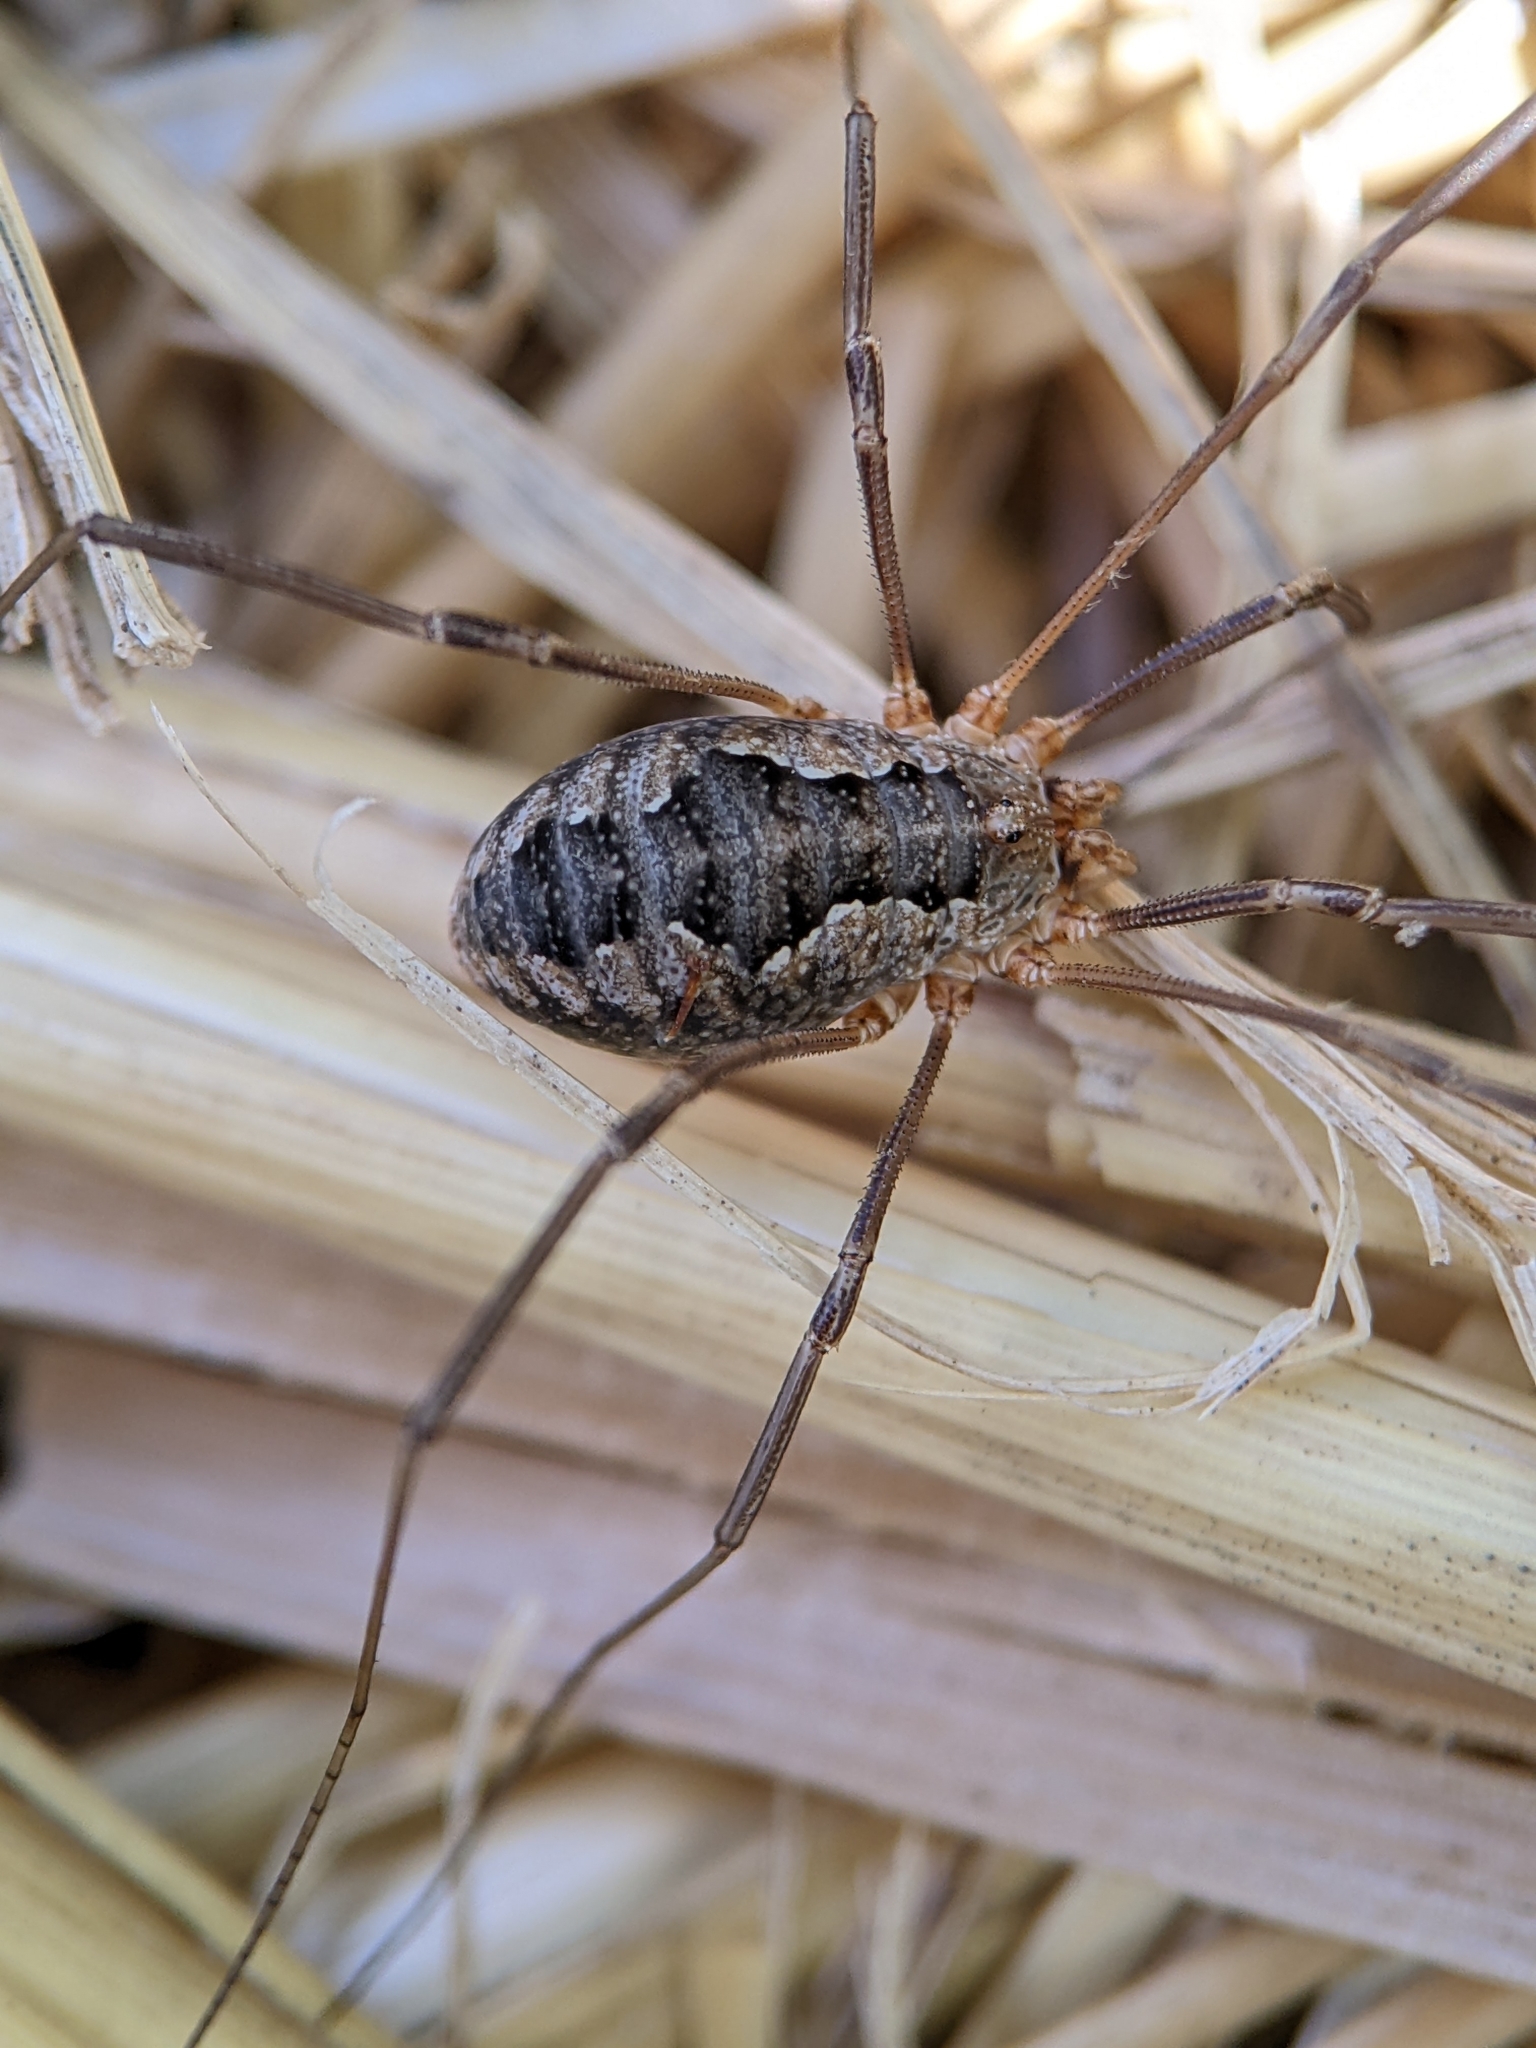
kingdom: Animalia
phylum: Arthropoda
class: Arachnida
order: Opiliones
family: Phalangiidae
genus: Phalangium
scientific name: Phalangium opilio
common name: Daddy longleg
